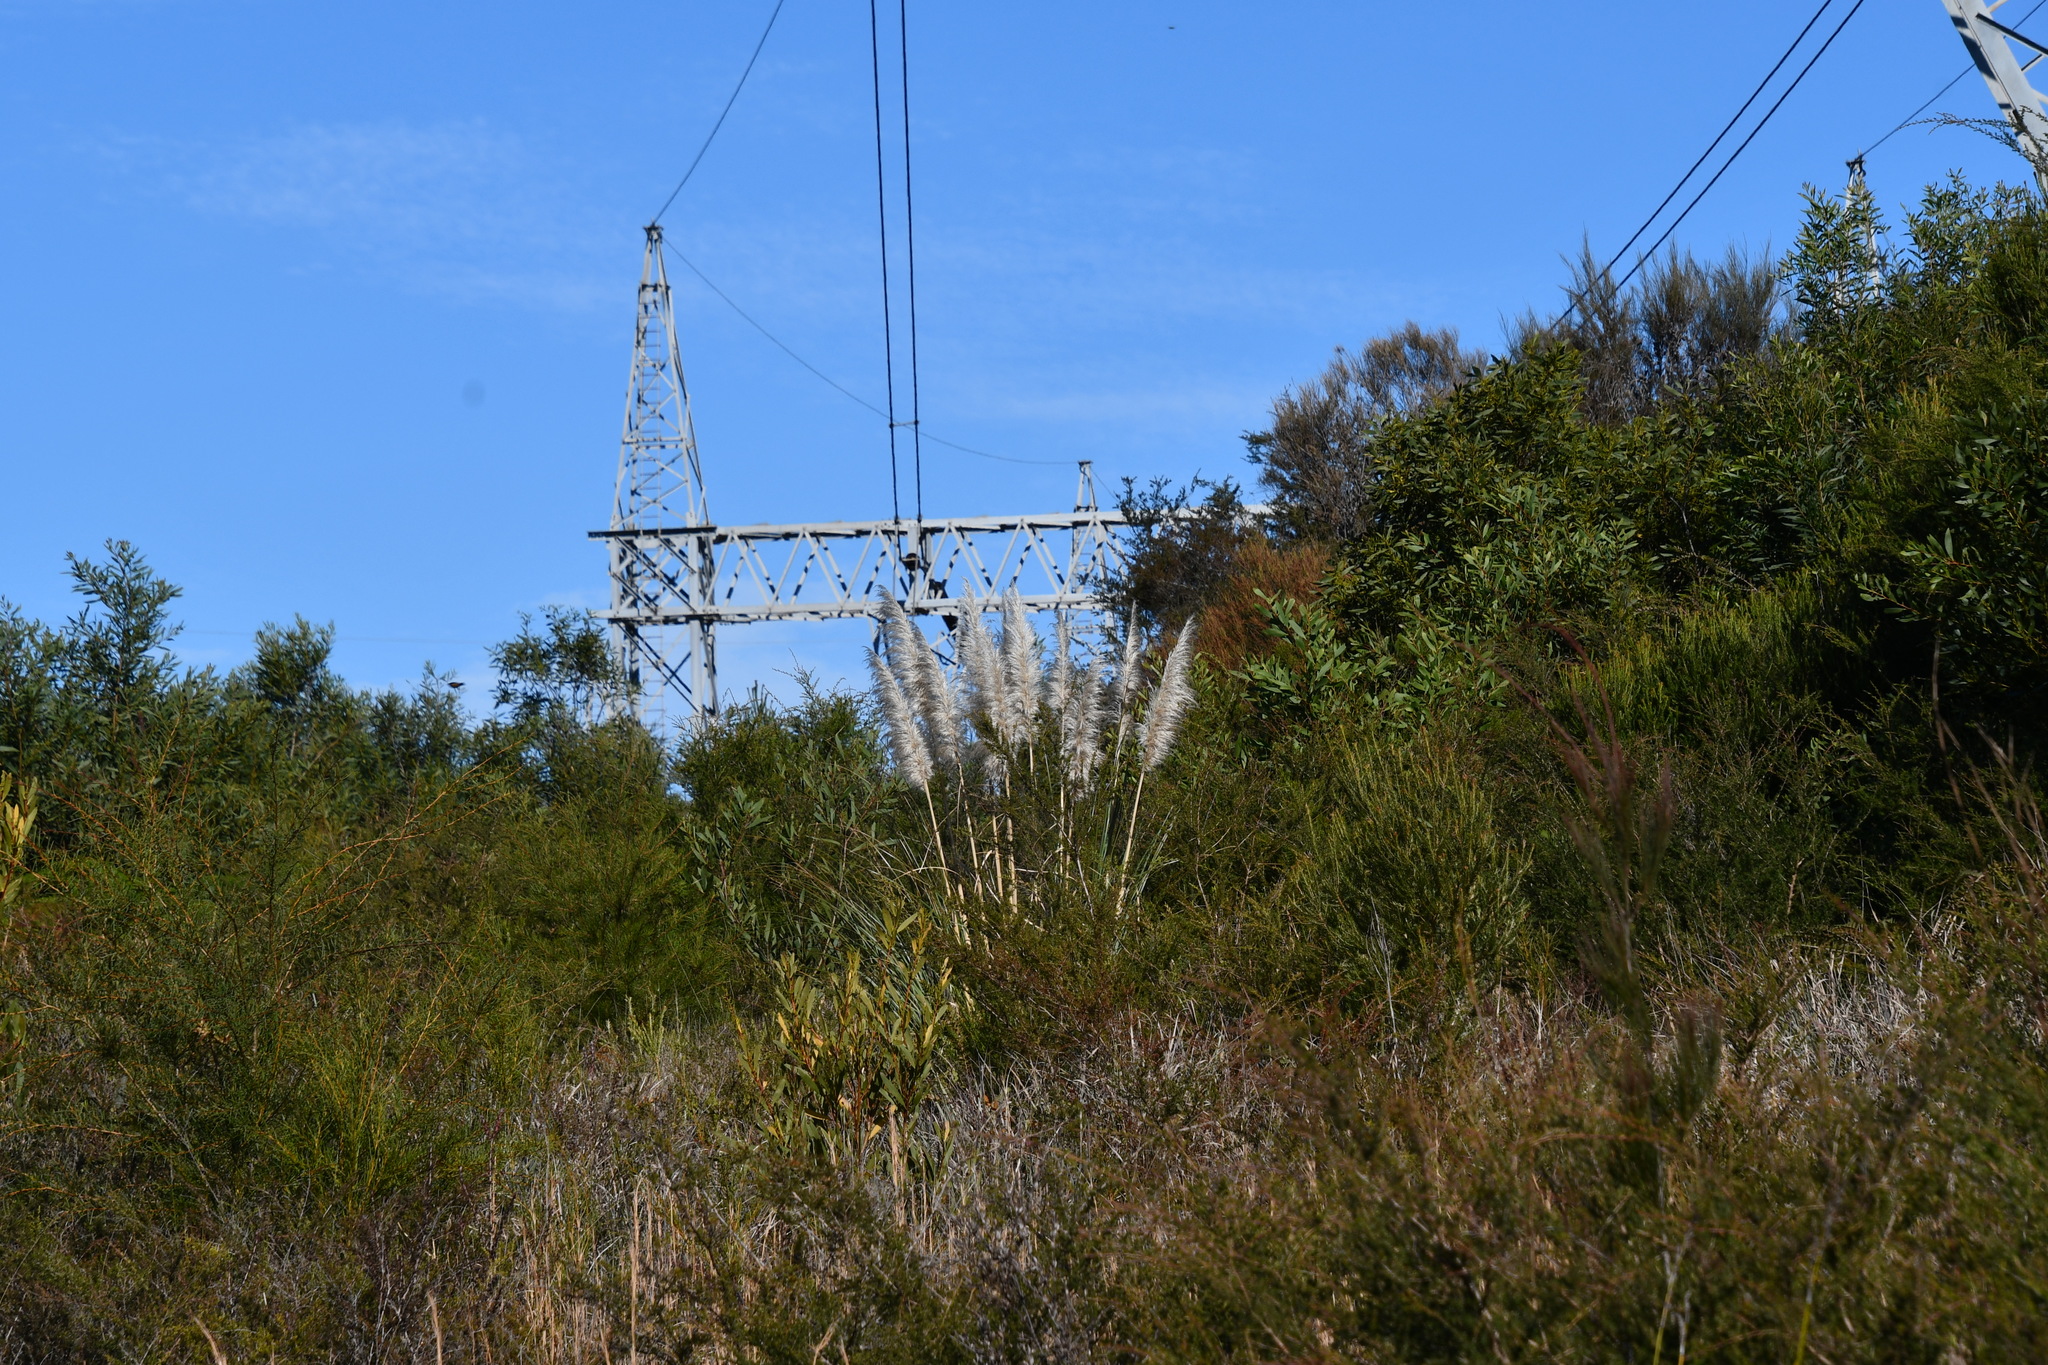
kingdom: Plantae
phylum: Tracheophyta
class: Liliopsida
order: Poales
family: Poaceae
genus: Cortaderia
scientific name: Cortaderia selloana
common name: Uruguayan pampas grass
